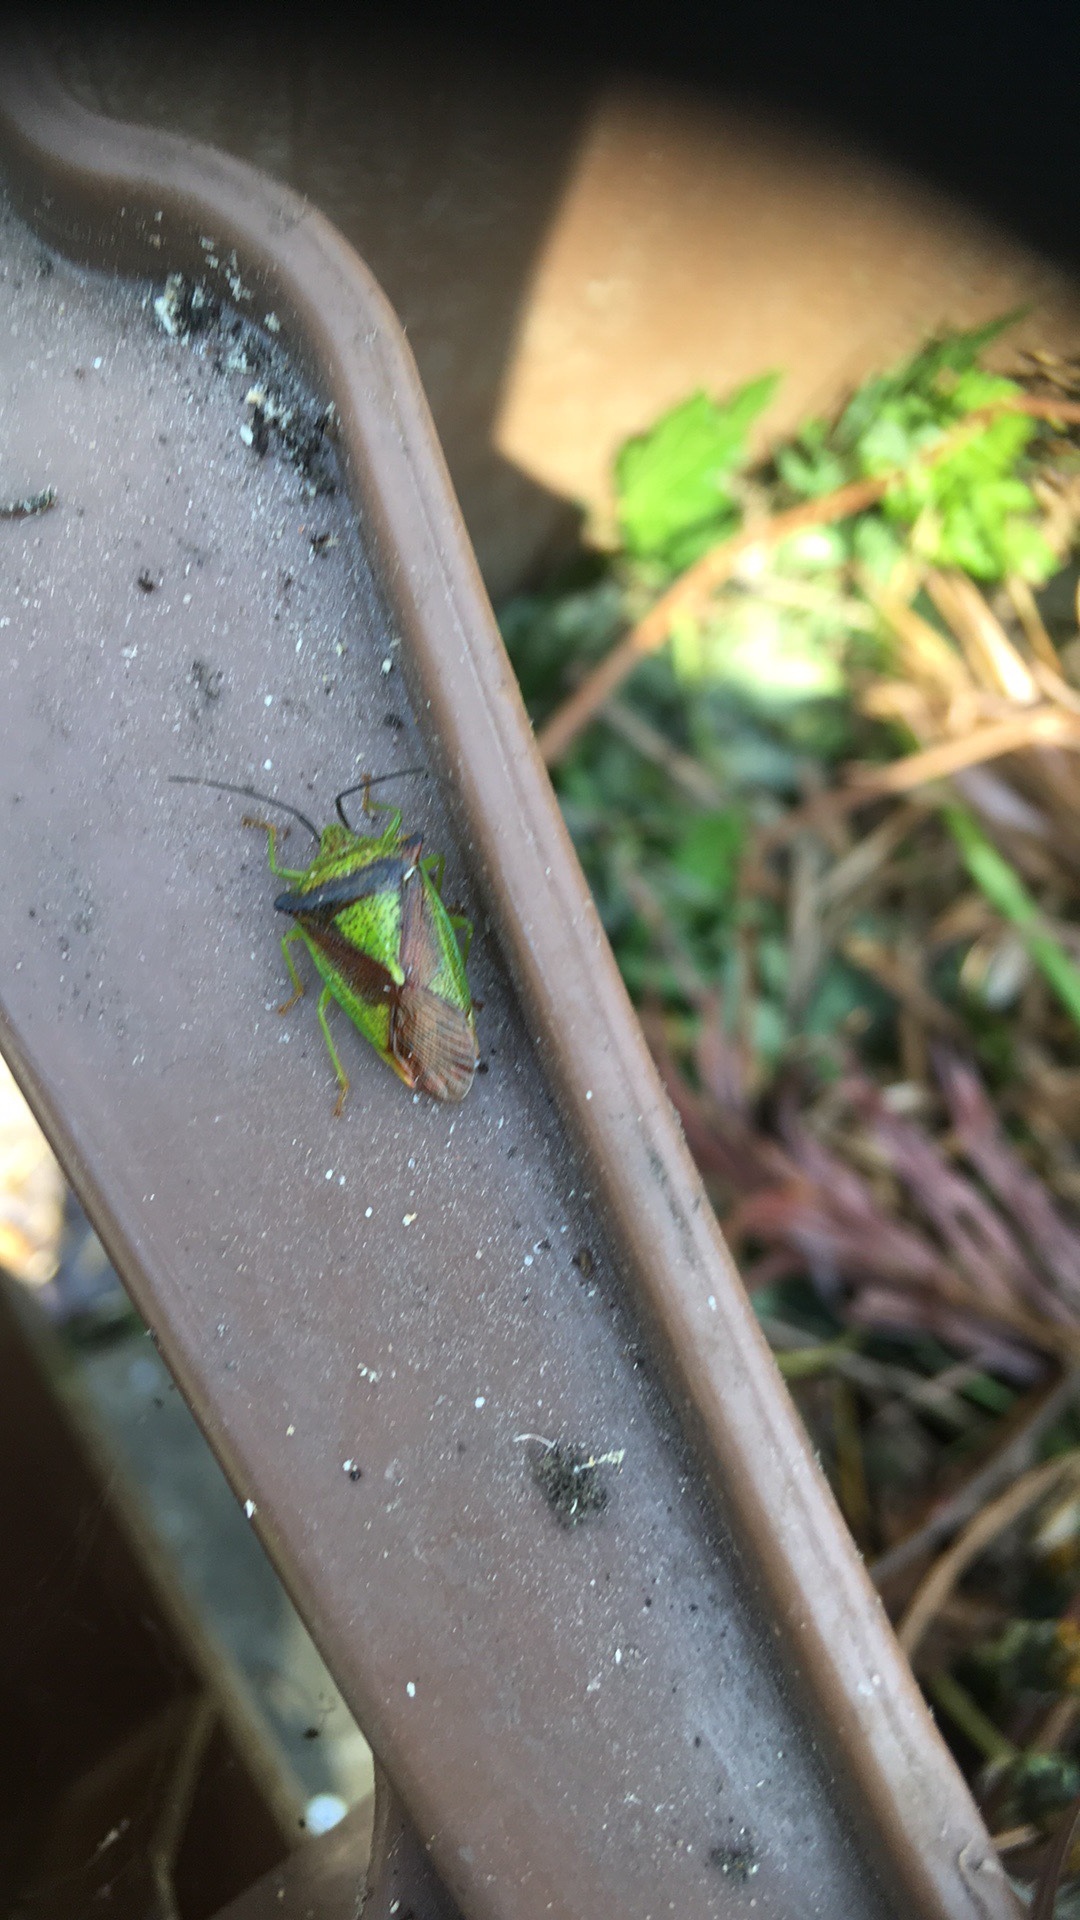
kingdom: Animalia
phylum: Arthropoda
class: Insecta
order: Hemiptera
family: Acanthosomatidae
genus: Acanthosoma
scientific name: Acanthosoma haemorrhoidale
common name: Hawthorn shieldbug
